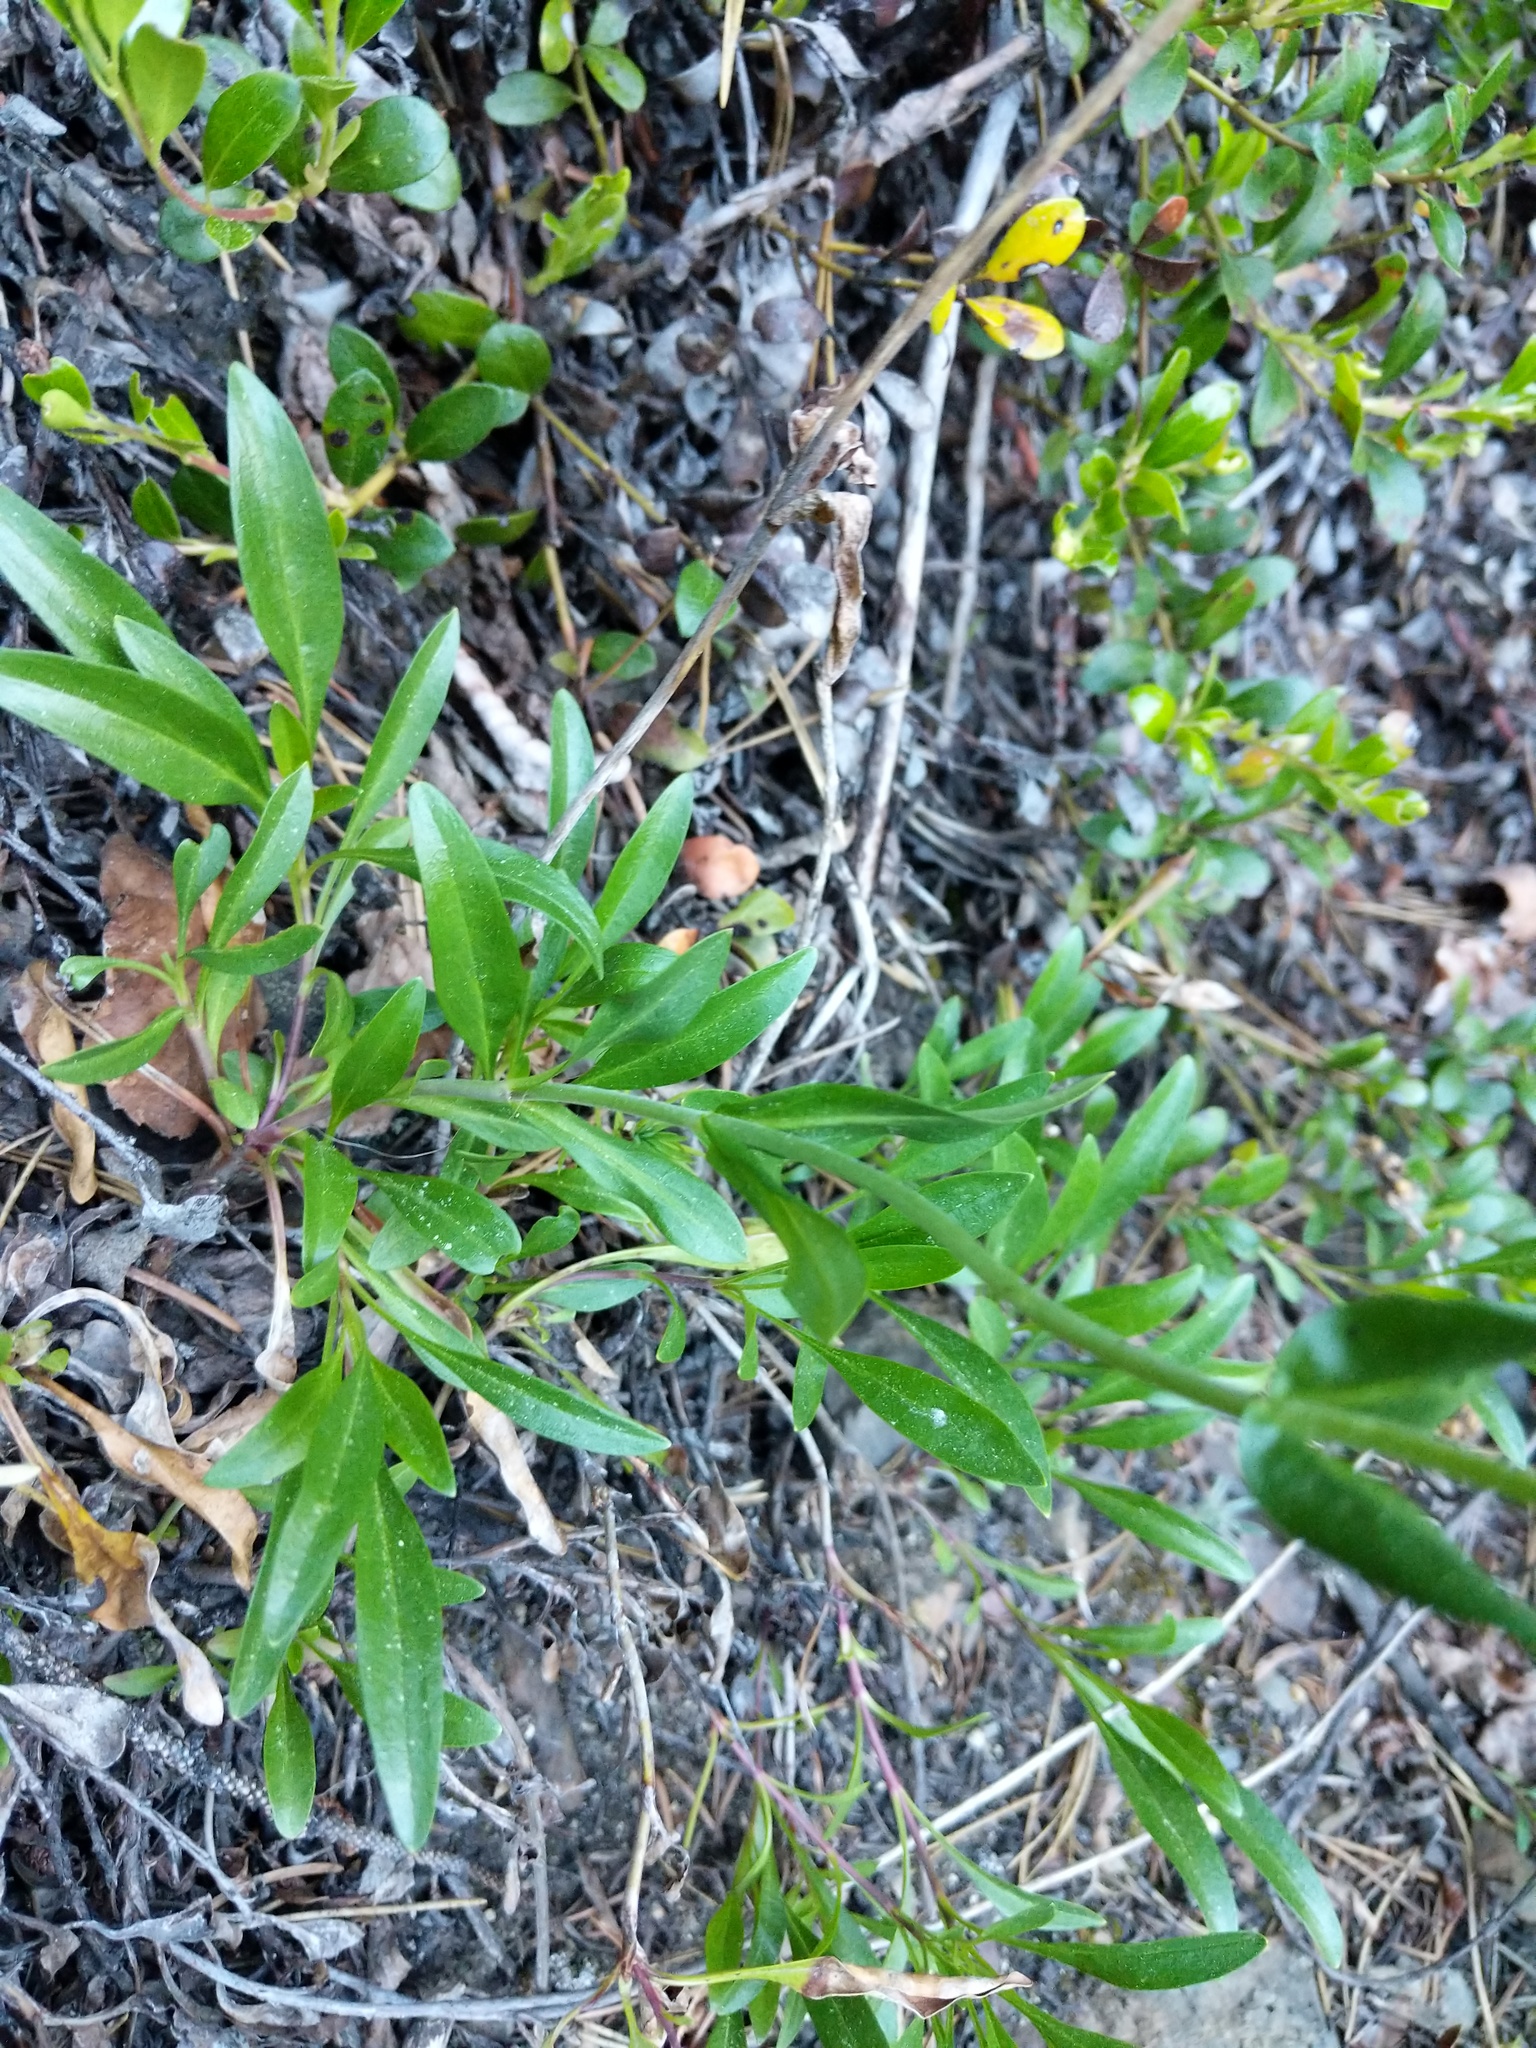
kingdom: Plantae
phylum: Tracheophyta
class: Magnoliopsida
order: Lamiales
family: Plantaginaceae
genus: Penstemon
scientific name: Penstemon procerus
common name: Small-flower penstemon
